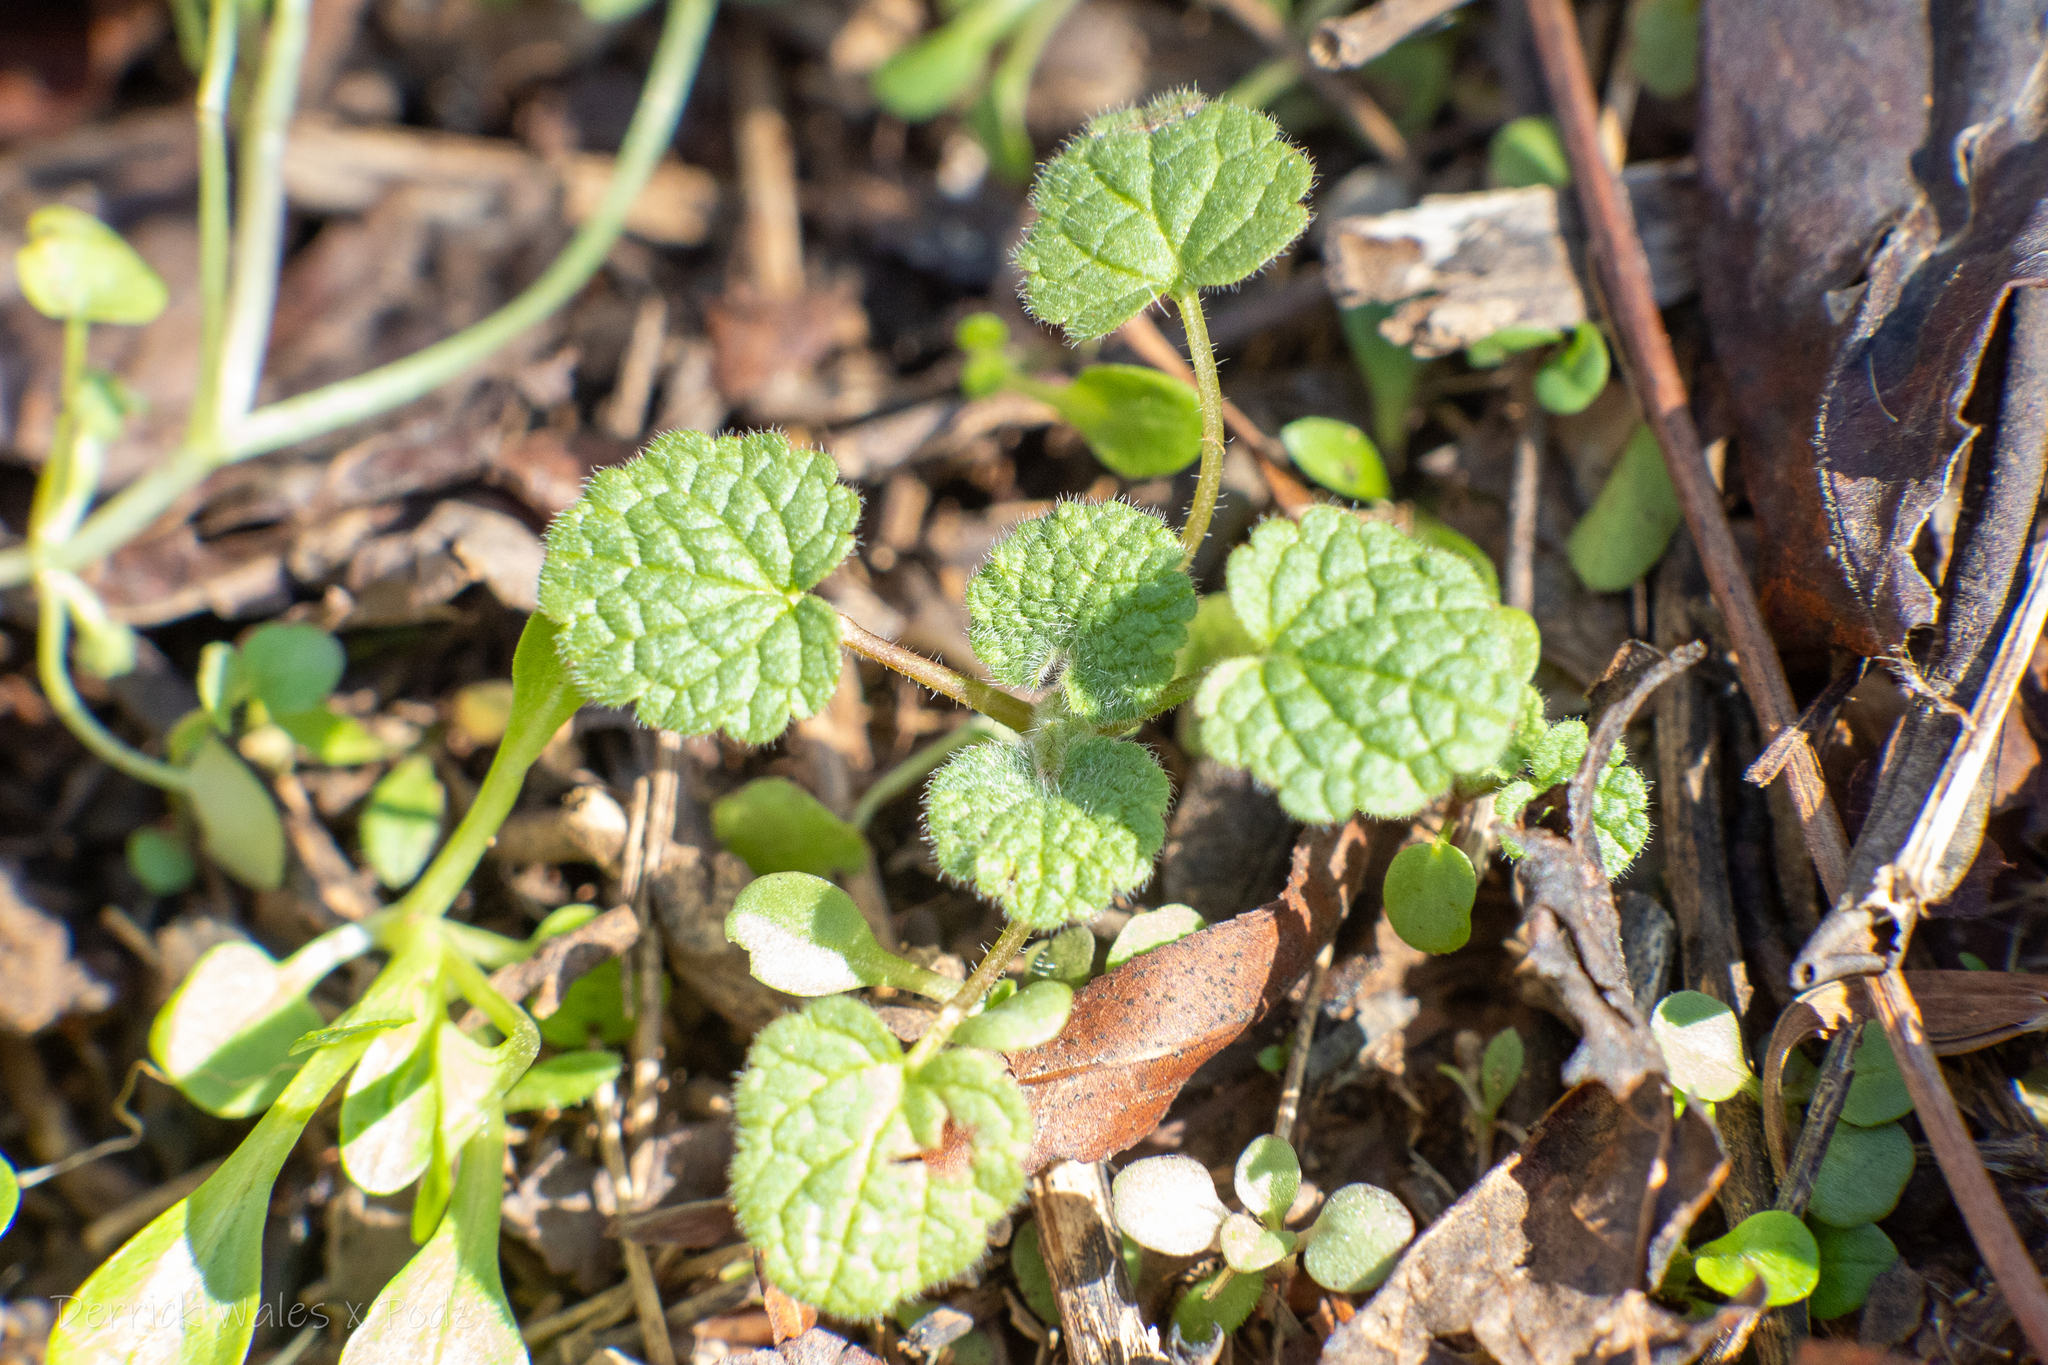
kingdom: Plantae
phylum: Tracheophyta
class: Magnoliopsida
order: Lamiales
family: Lamiaceae
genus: Lamium
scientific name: Lamium purpureum
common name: Red dead-nettle
